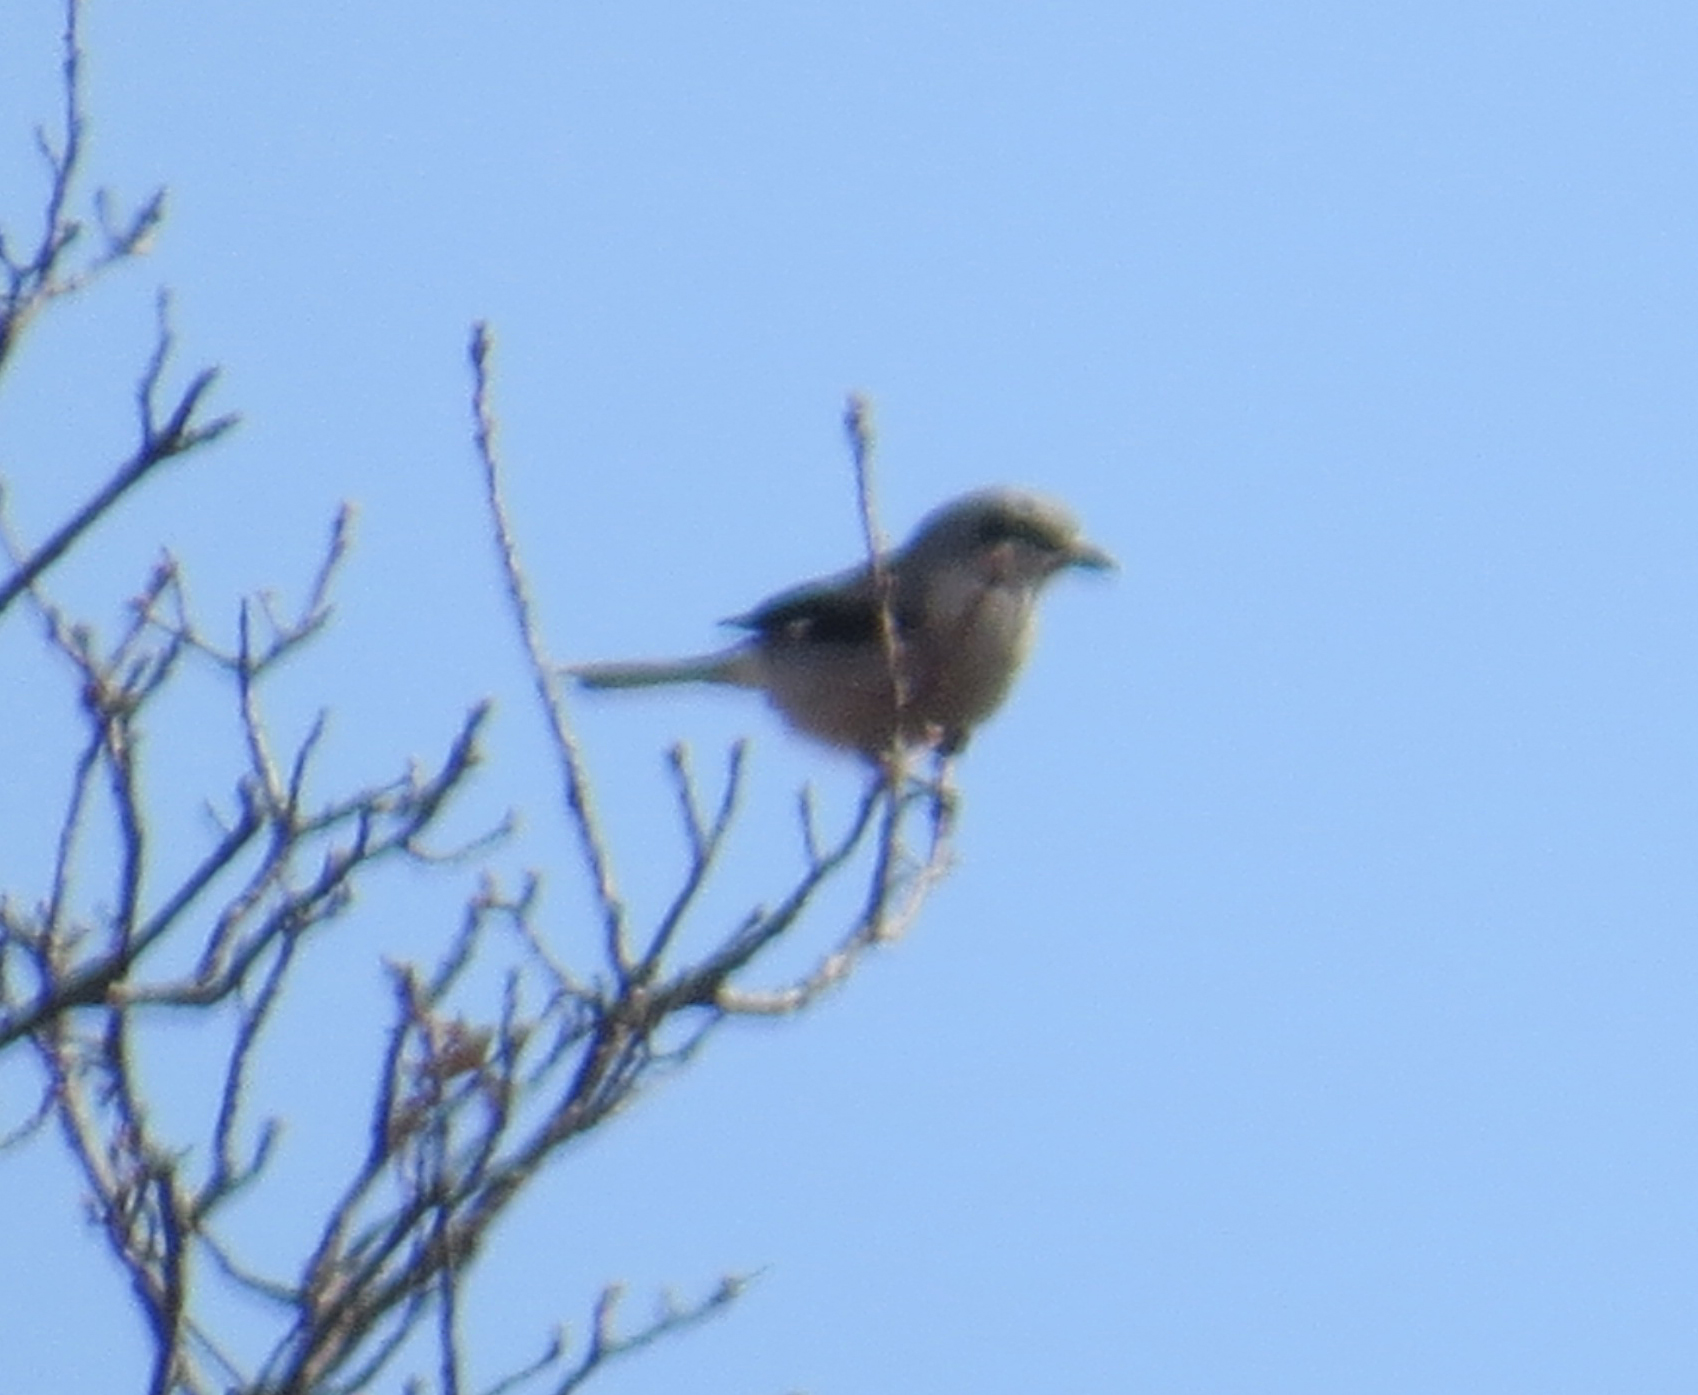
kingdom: Animalia
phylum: Chordata
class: Aves
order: Passeriformes
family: Laniidae
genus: Lanius
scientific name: Lanius borealis
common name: Northern shrike
